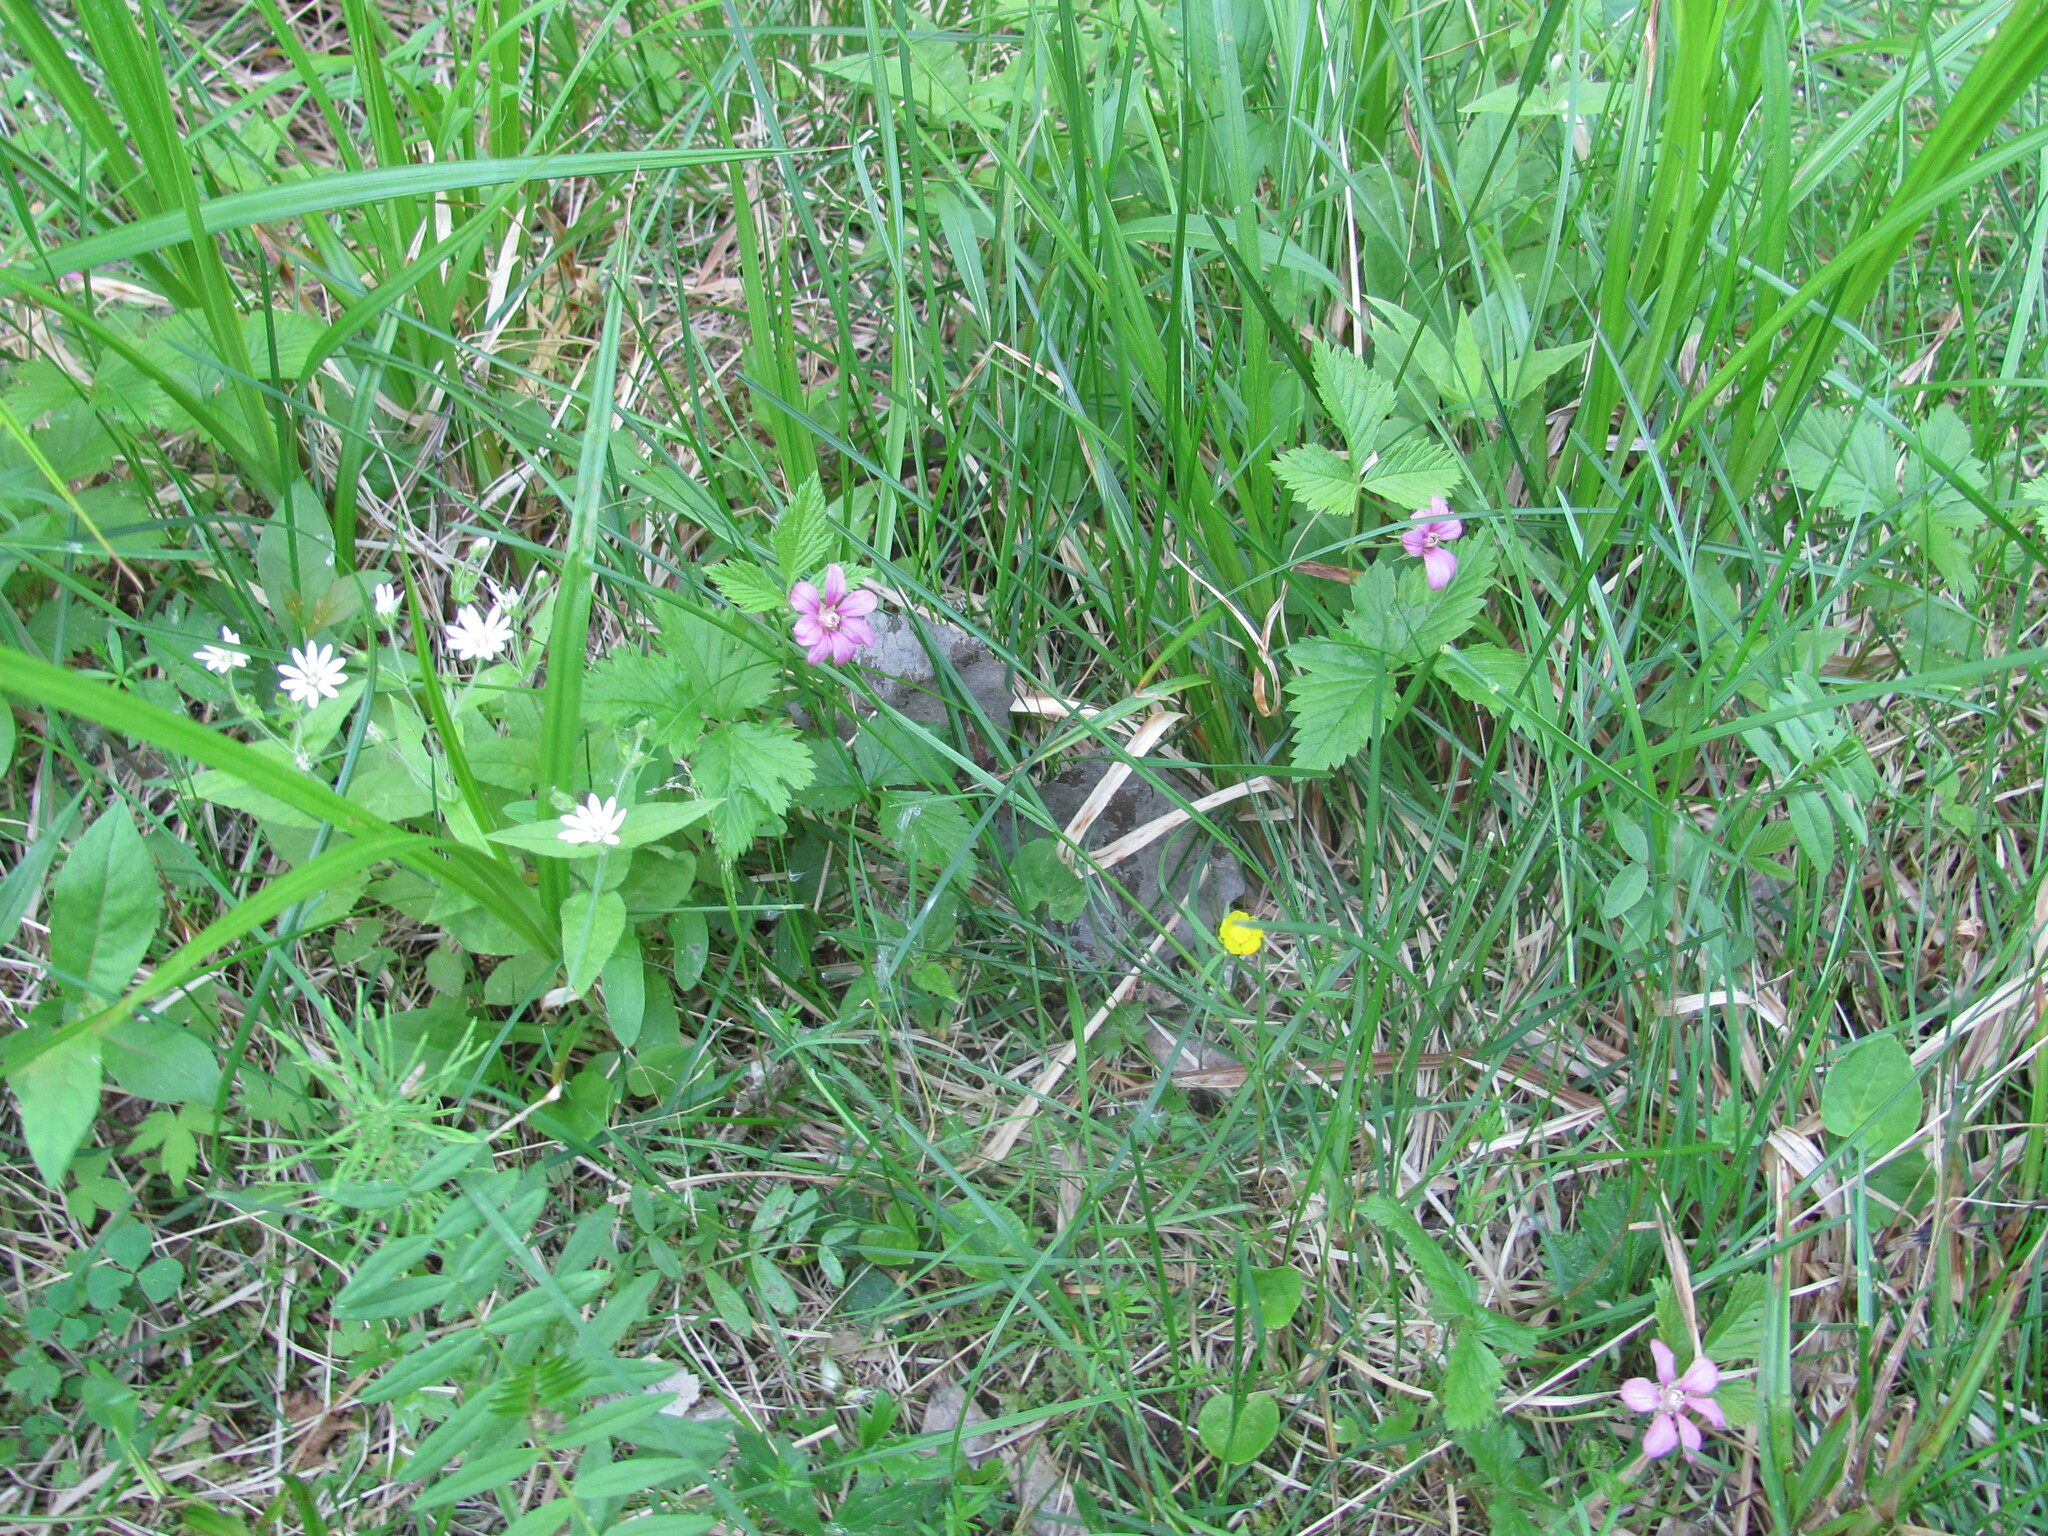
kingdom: Plantae
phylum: Tracheophyta
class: Magnoliopsida
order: Rosales
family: Rosaceae
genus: Rubus
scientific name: Rubus arcticus
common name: Arctic bramble
